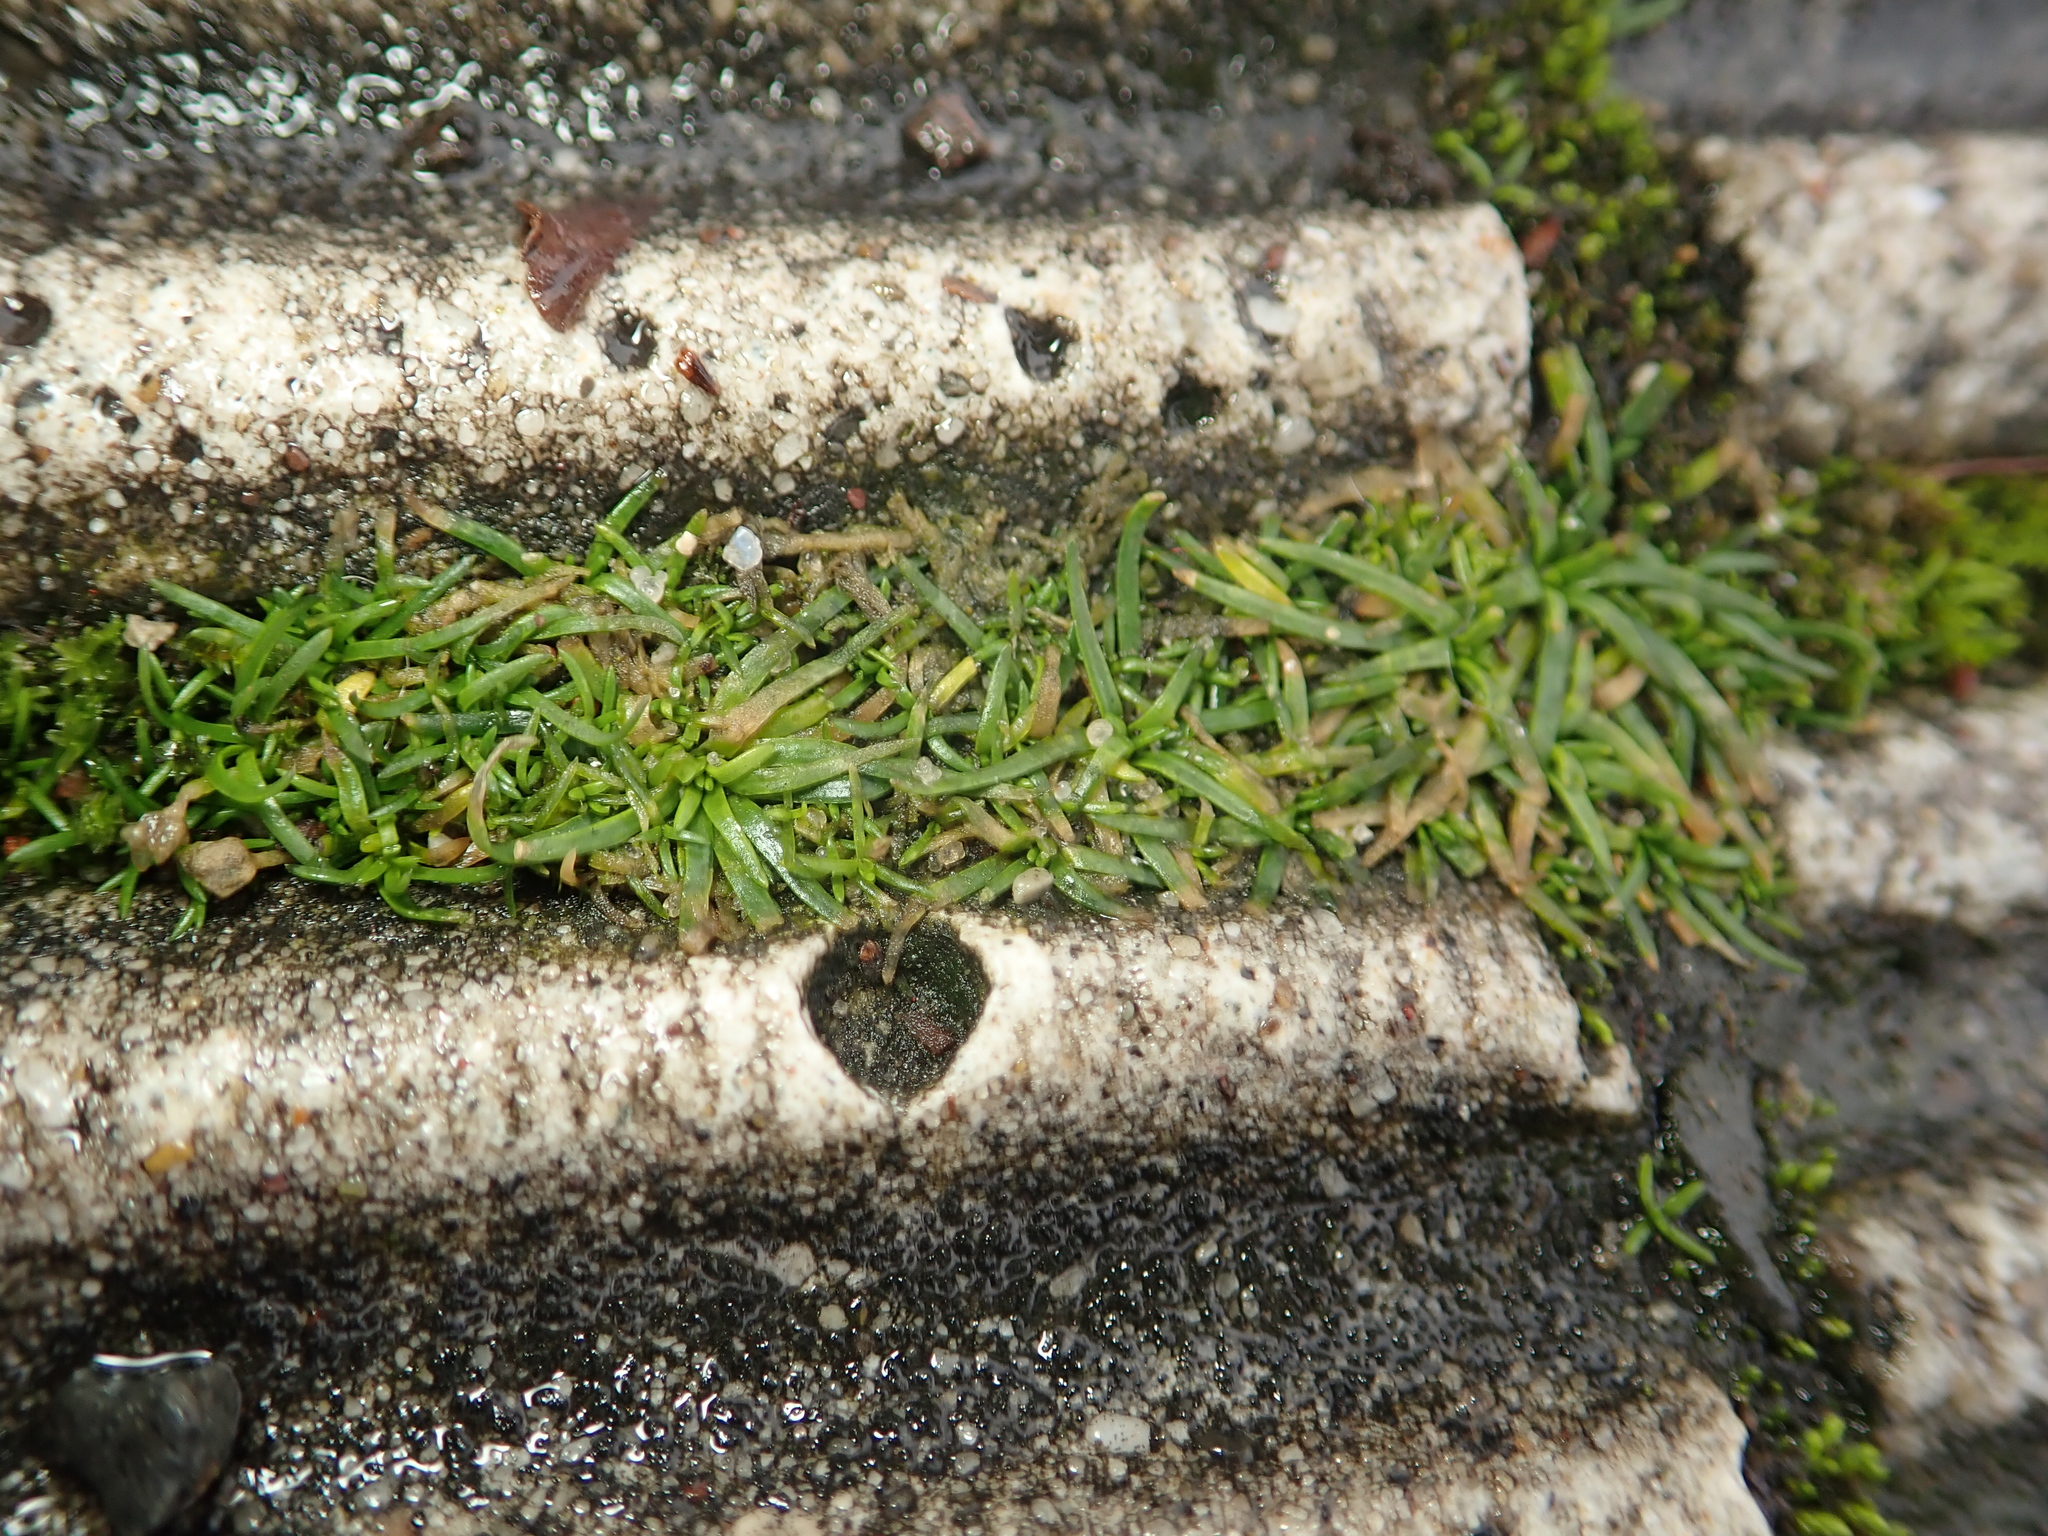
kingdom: Plantae
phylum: Tracheophyta
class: Magnoliopsida
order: Caryophyllales
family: Caryophyllaceae
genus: Sagina
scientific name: Sagina procumbens
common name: Procumbent pearlwort
